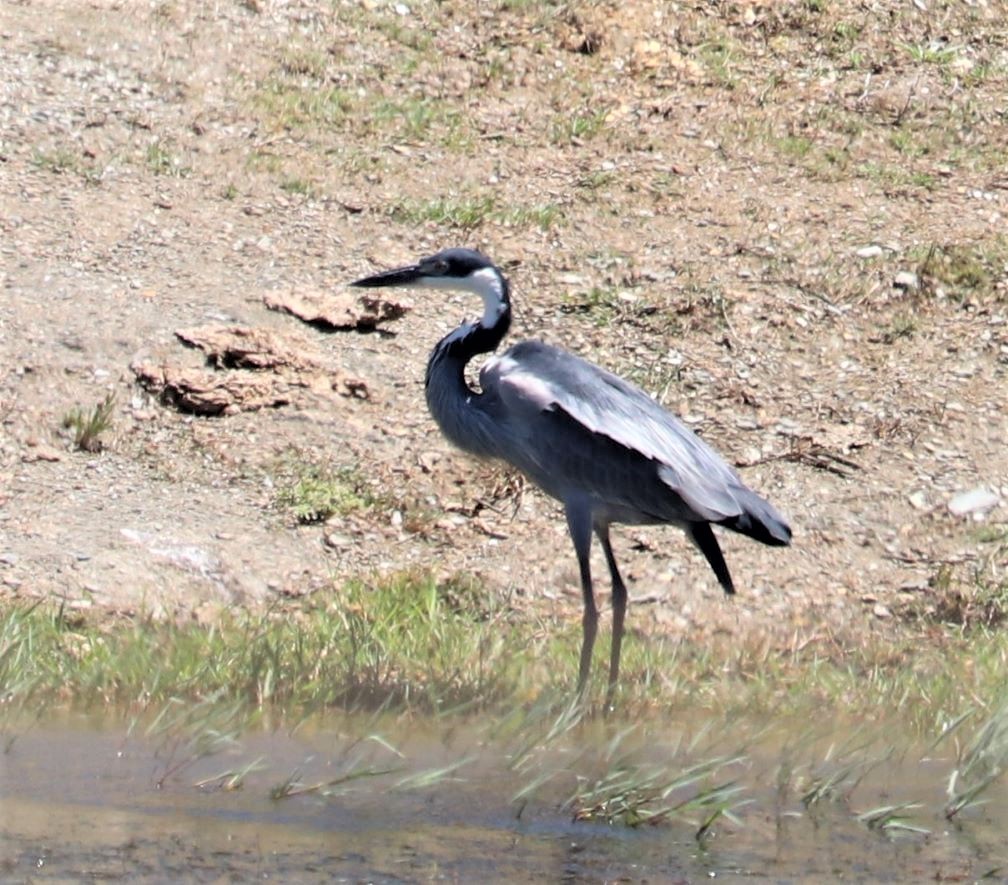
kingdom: Animalia
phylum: Chordata
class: Aves
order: Pelecaniformes
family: Ardeidae
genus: Ardea
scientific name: Ardea melanocephala
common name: Black-headed heron
